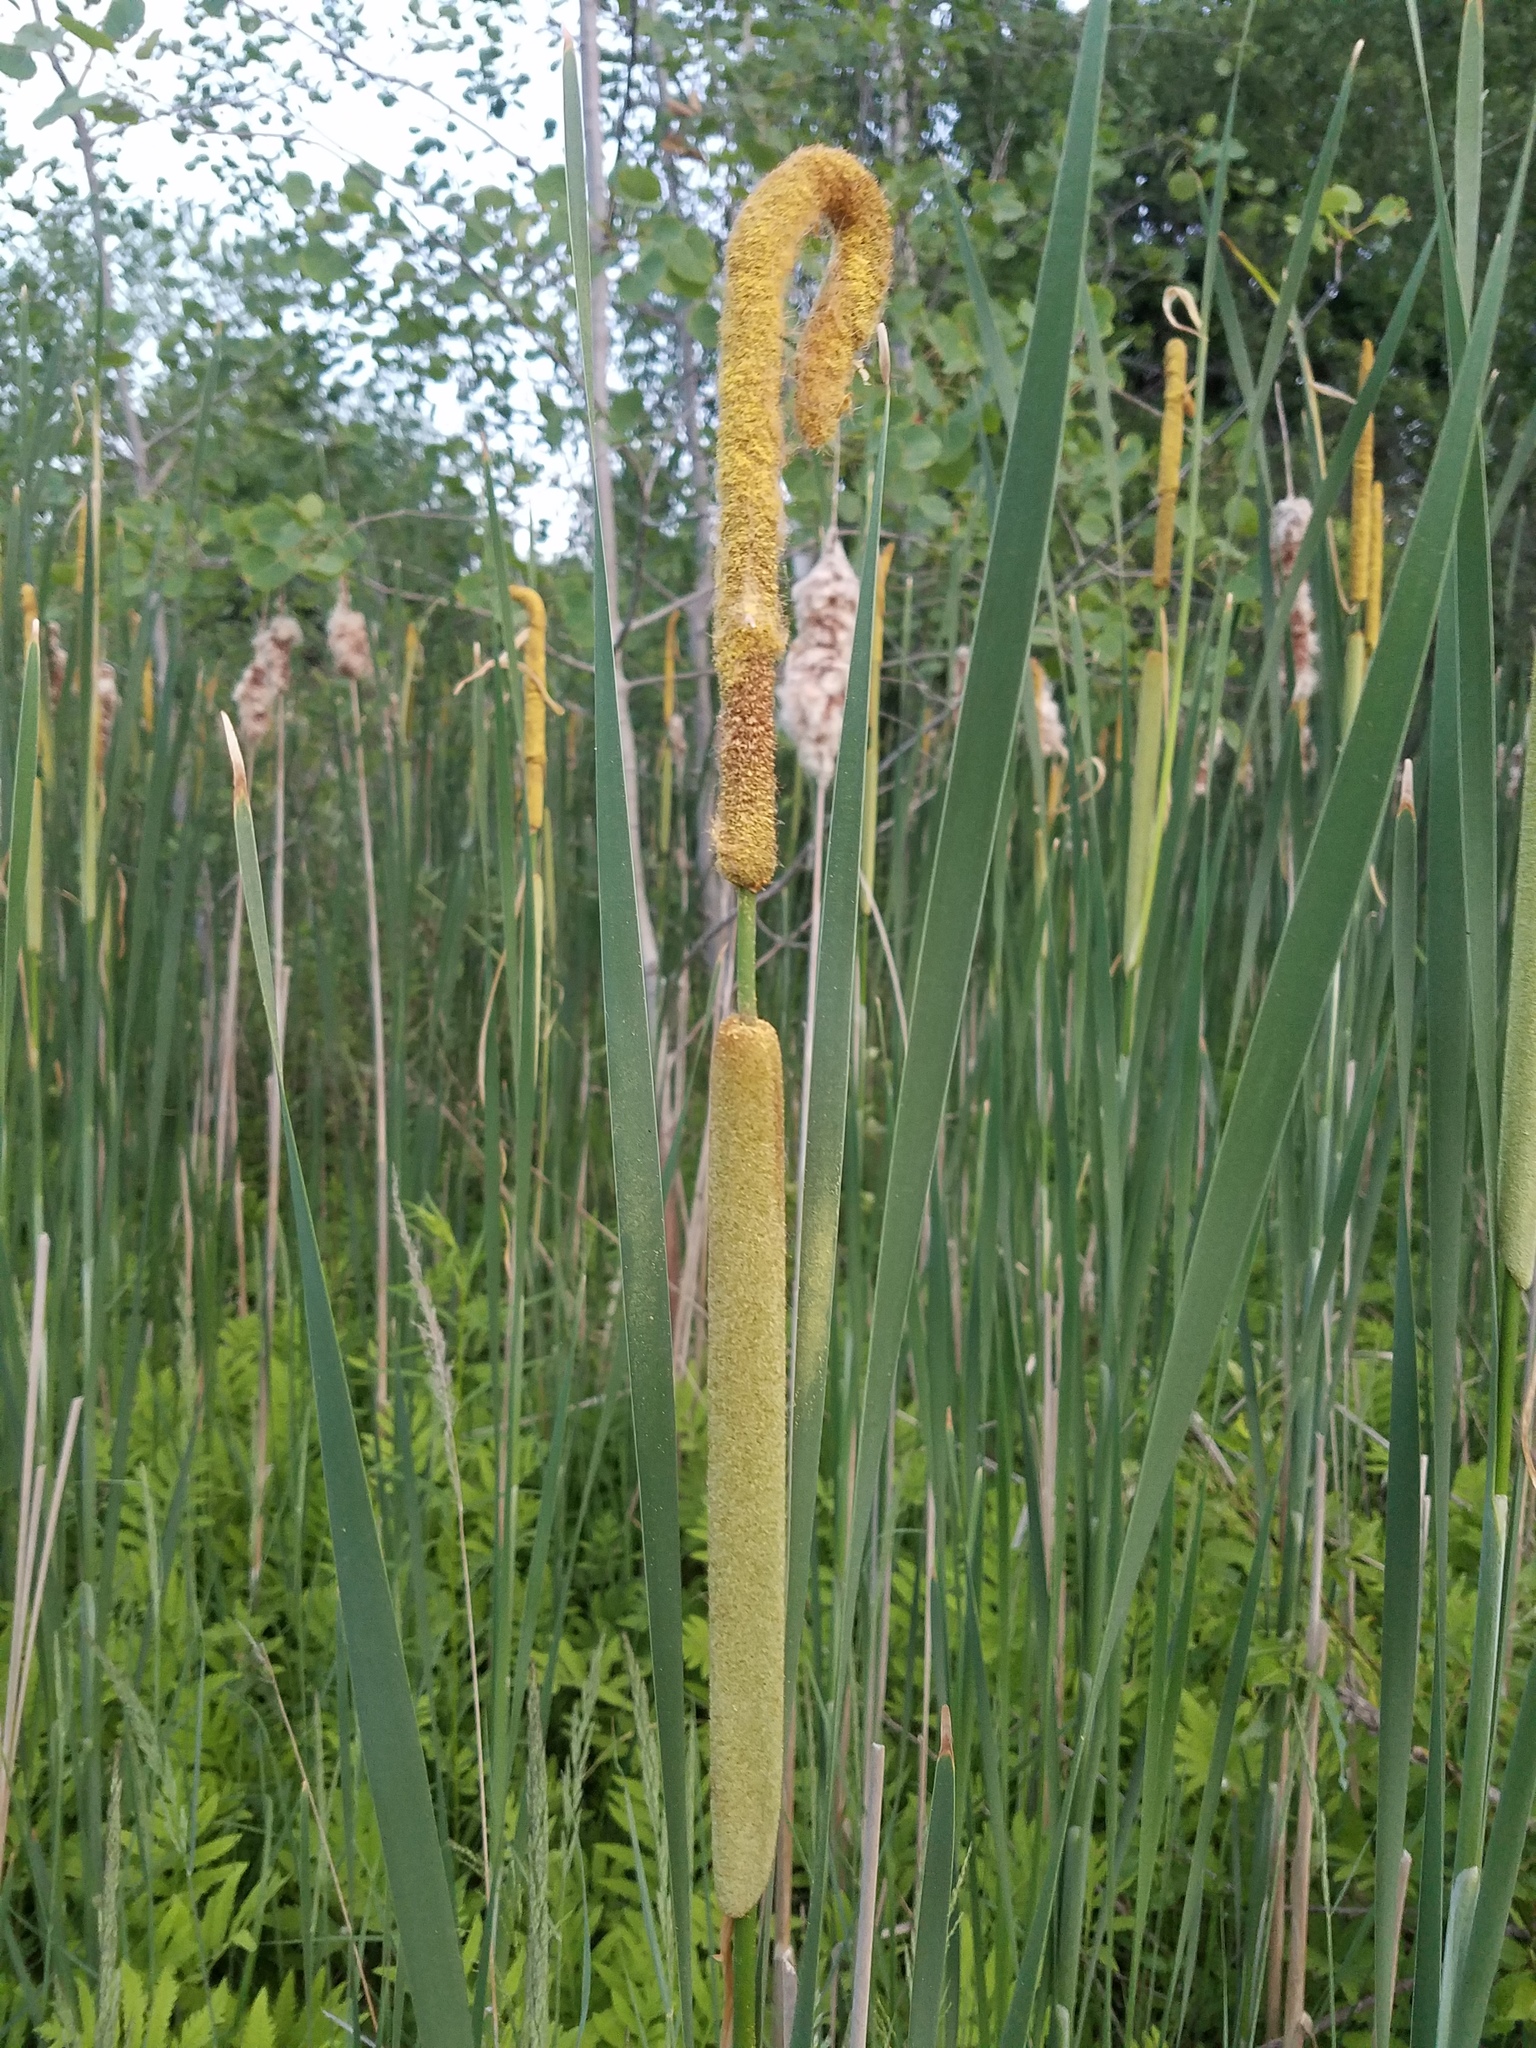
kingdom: Plantae
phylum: Tracheophyta
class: Liliopsida
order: Poales
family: Typhaceae
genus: Typha
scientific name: Typha angustifolia
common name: Lesser bulrush
